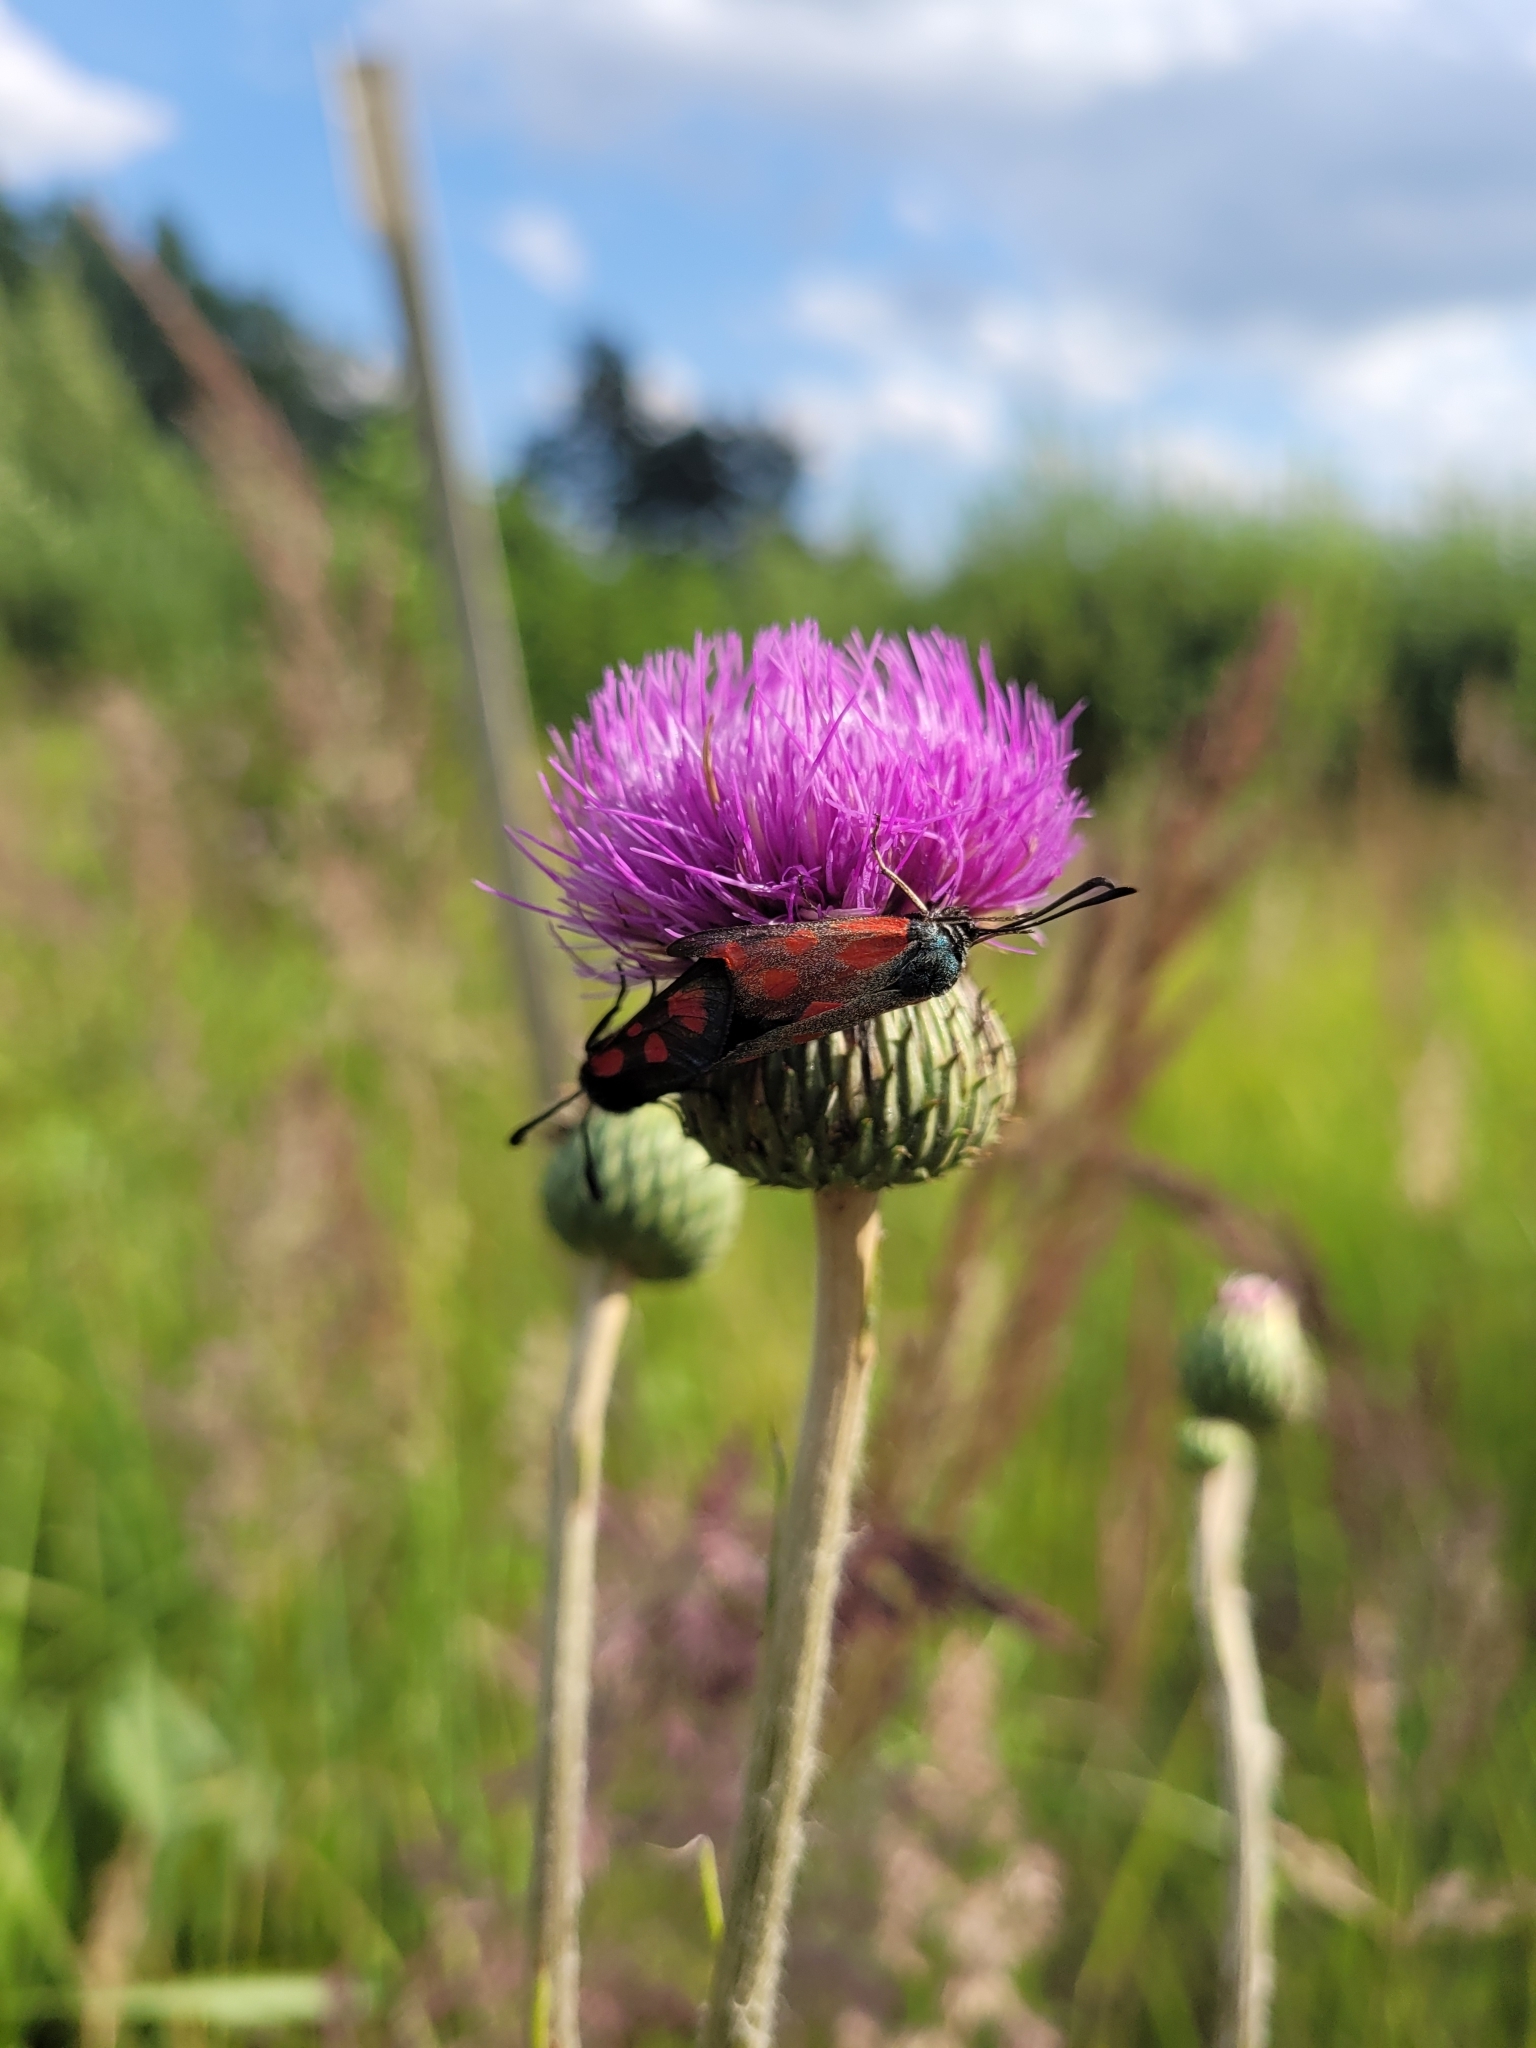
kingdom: Animalia
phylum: Arthropoda
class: Insecta
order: Lepidoptera
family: Zygaenidae
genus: Zygaena
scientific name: Zygaena loti
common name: Slender scotch burnet
